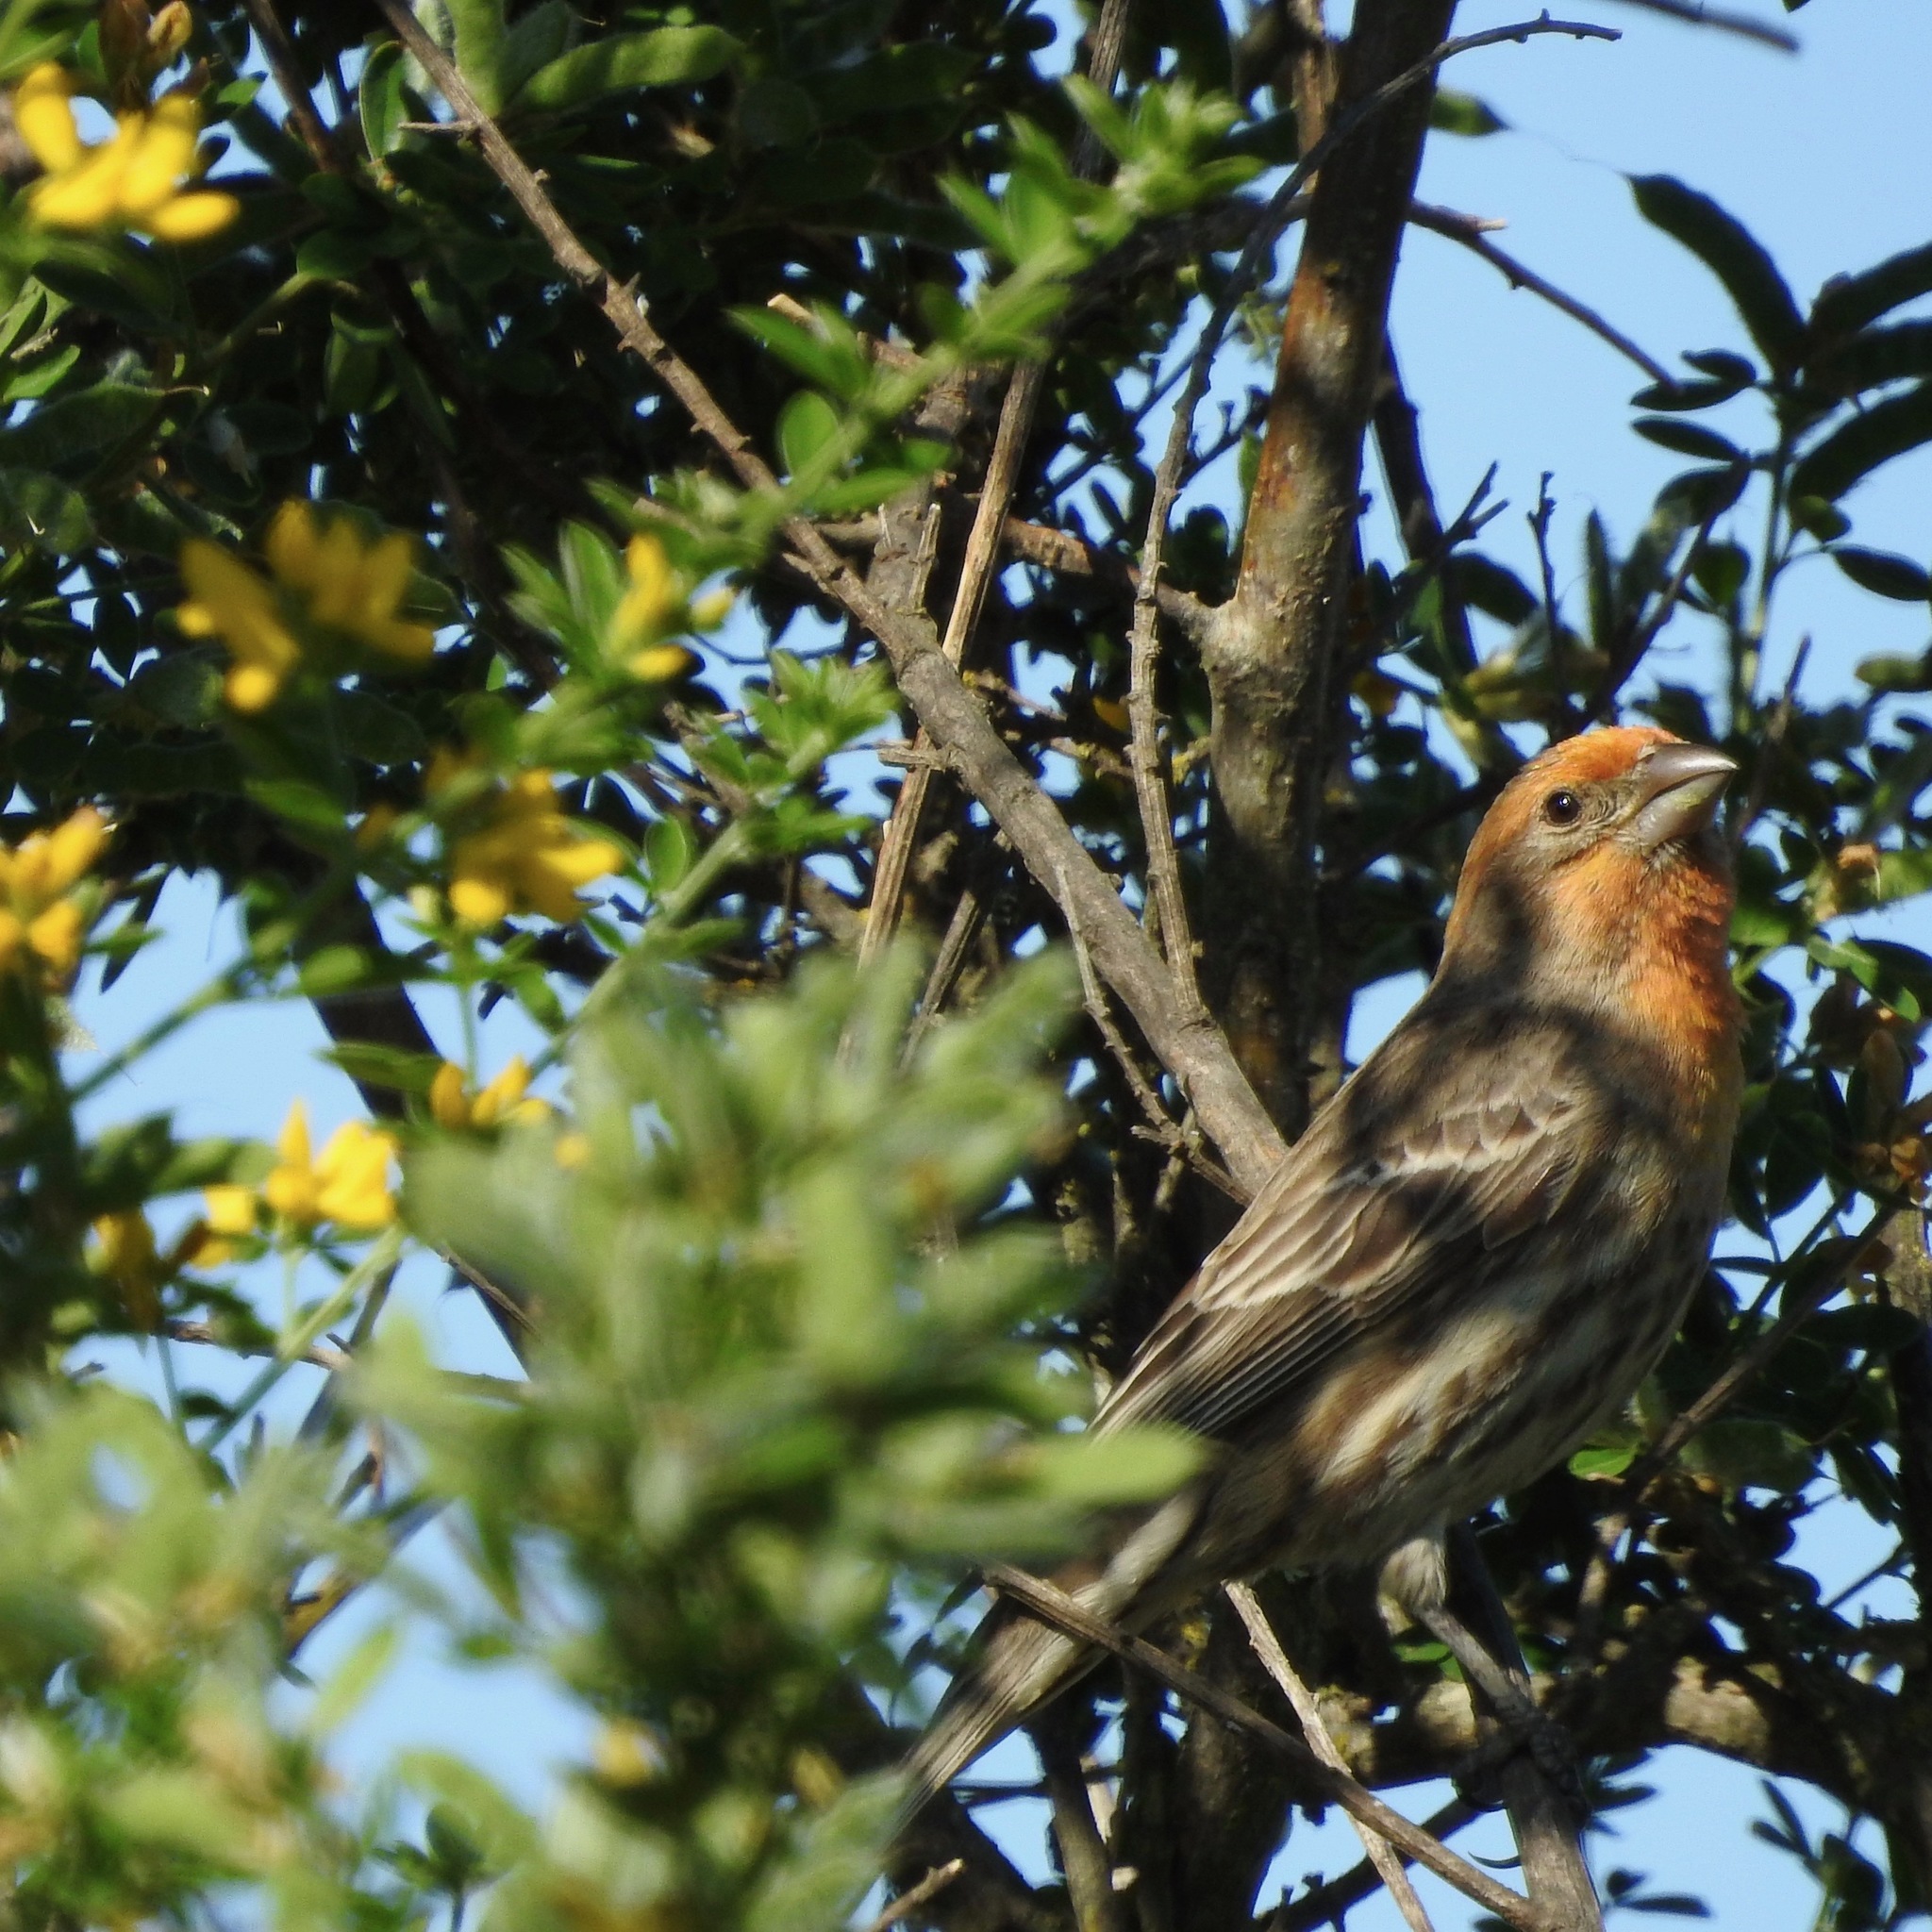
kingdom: Animalia
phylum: Chordata
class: Aves
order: Passeriformes
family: Fringillidae
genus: Haemorhous
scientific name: Haemorhous mexicanus
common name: House finch
